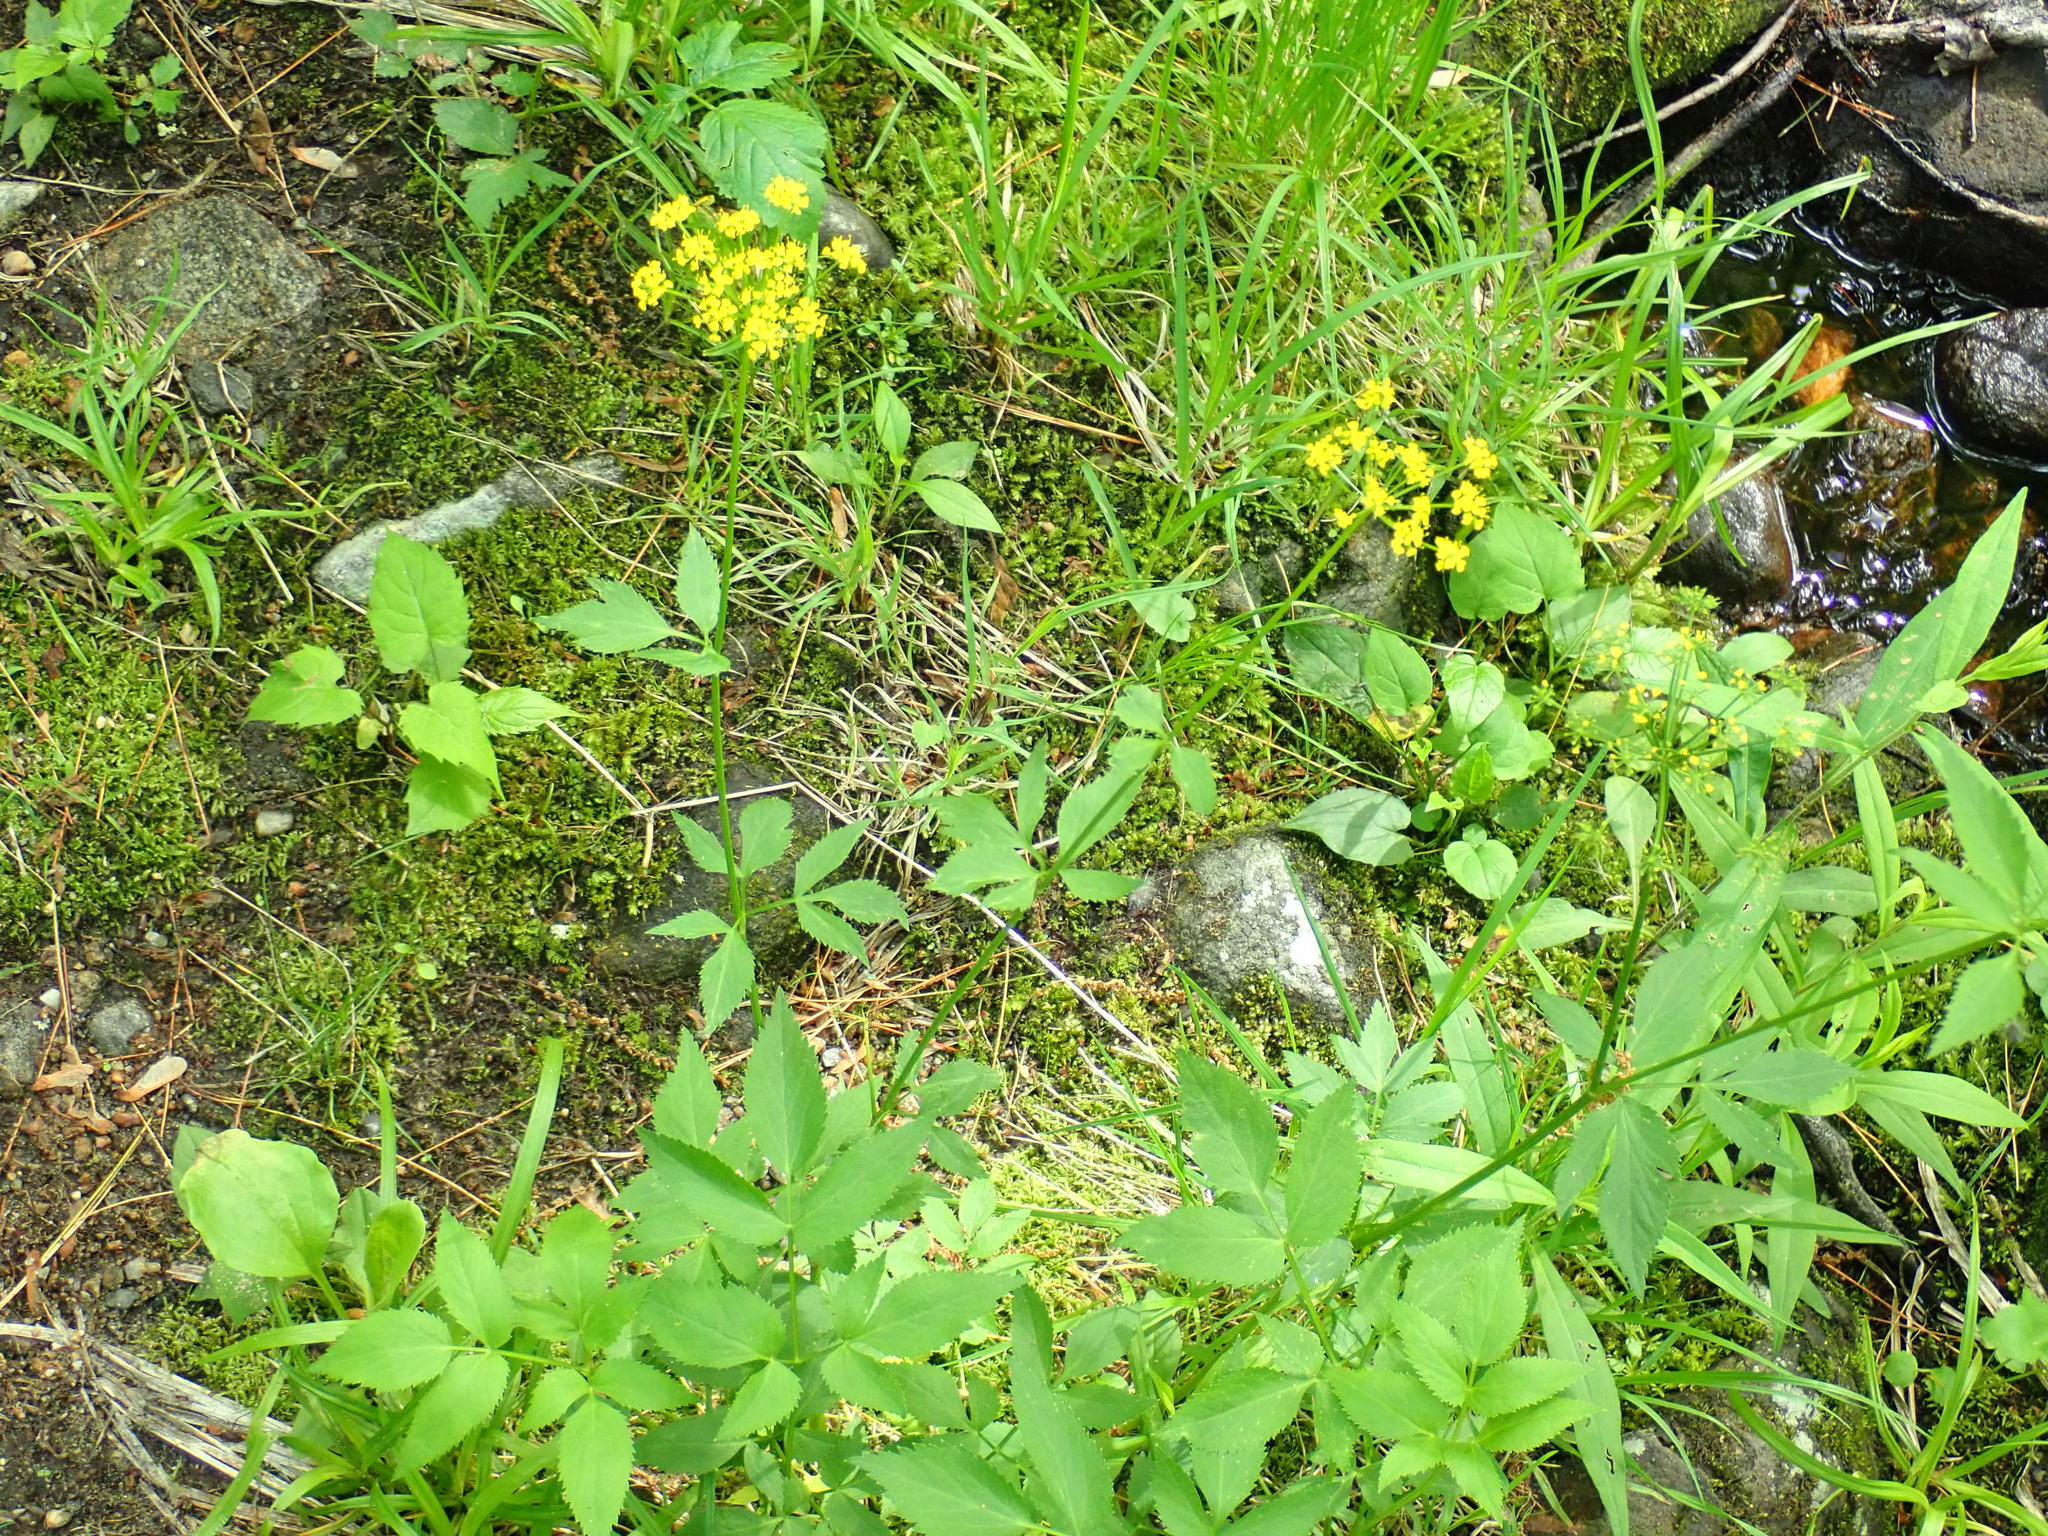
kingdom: Plantae
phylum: Tracheophyta
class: Magnoliopsida
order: Apiales
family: Apiaceae
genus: Zizia
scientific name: Zizia aurea
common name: Golden alexanders
